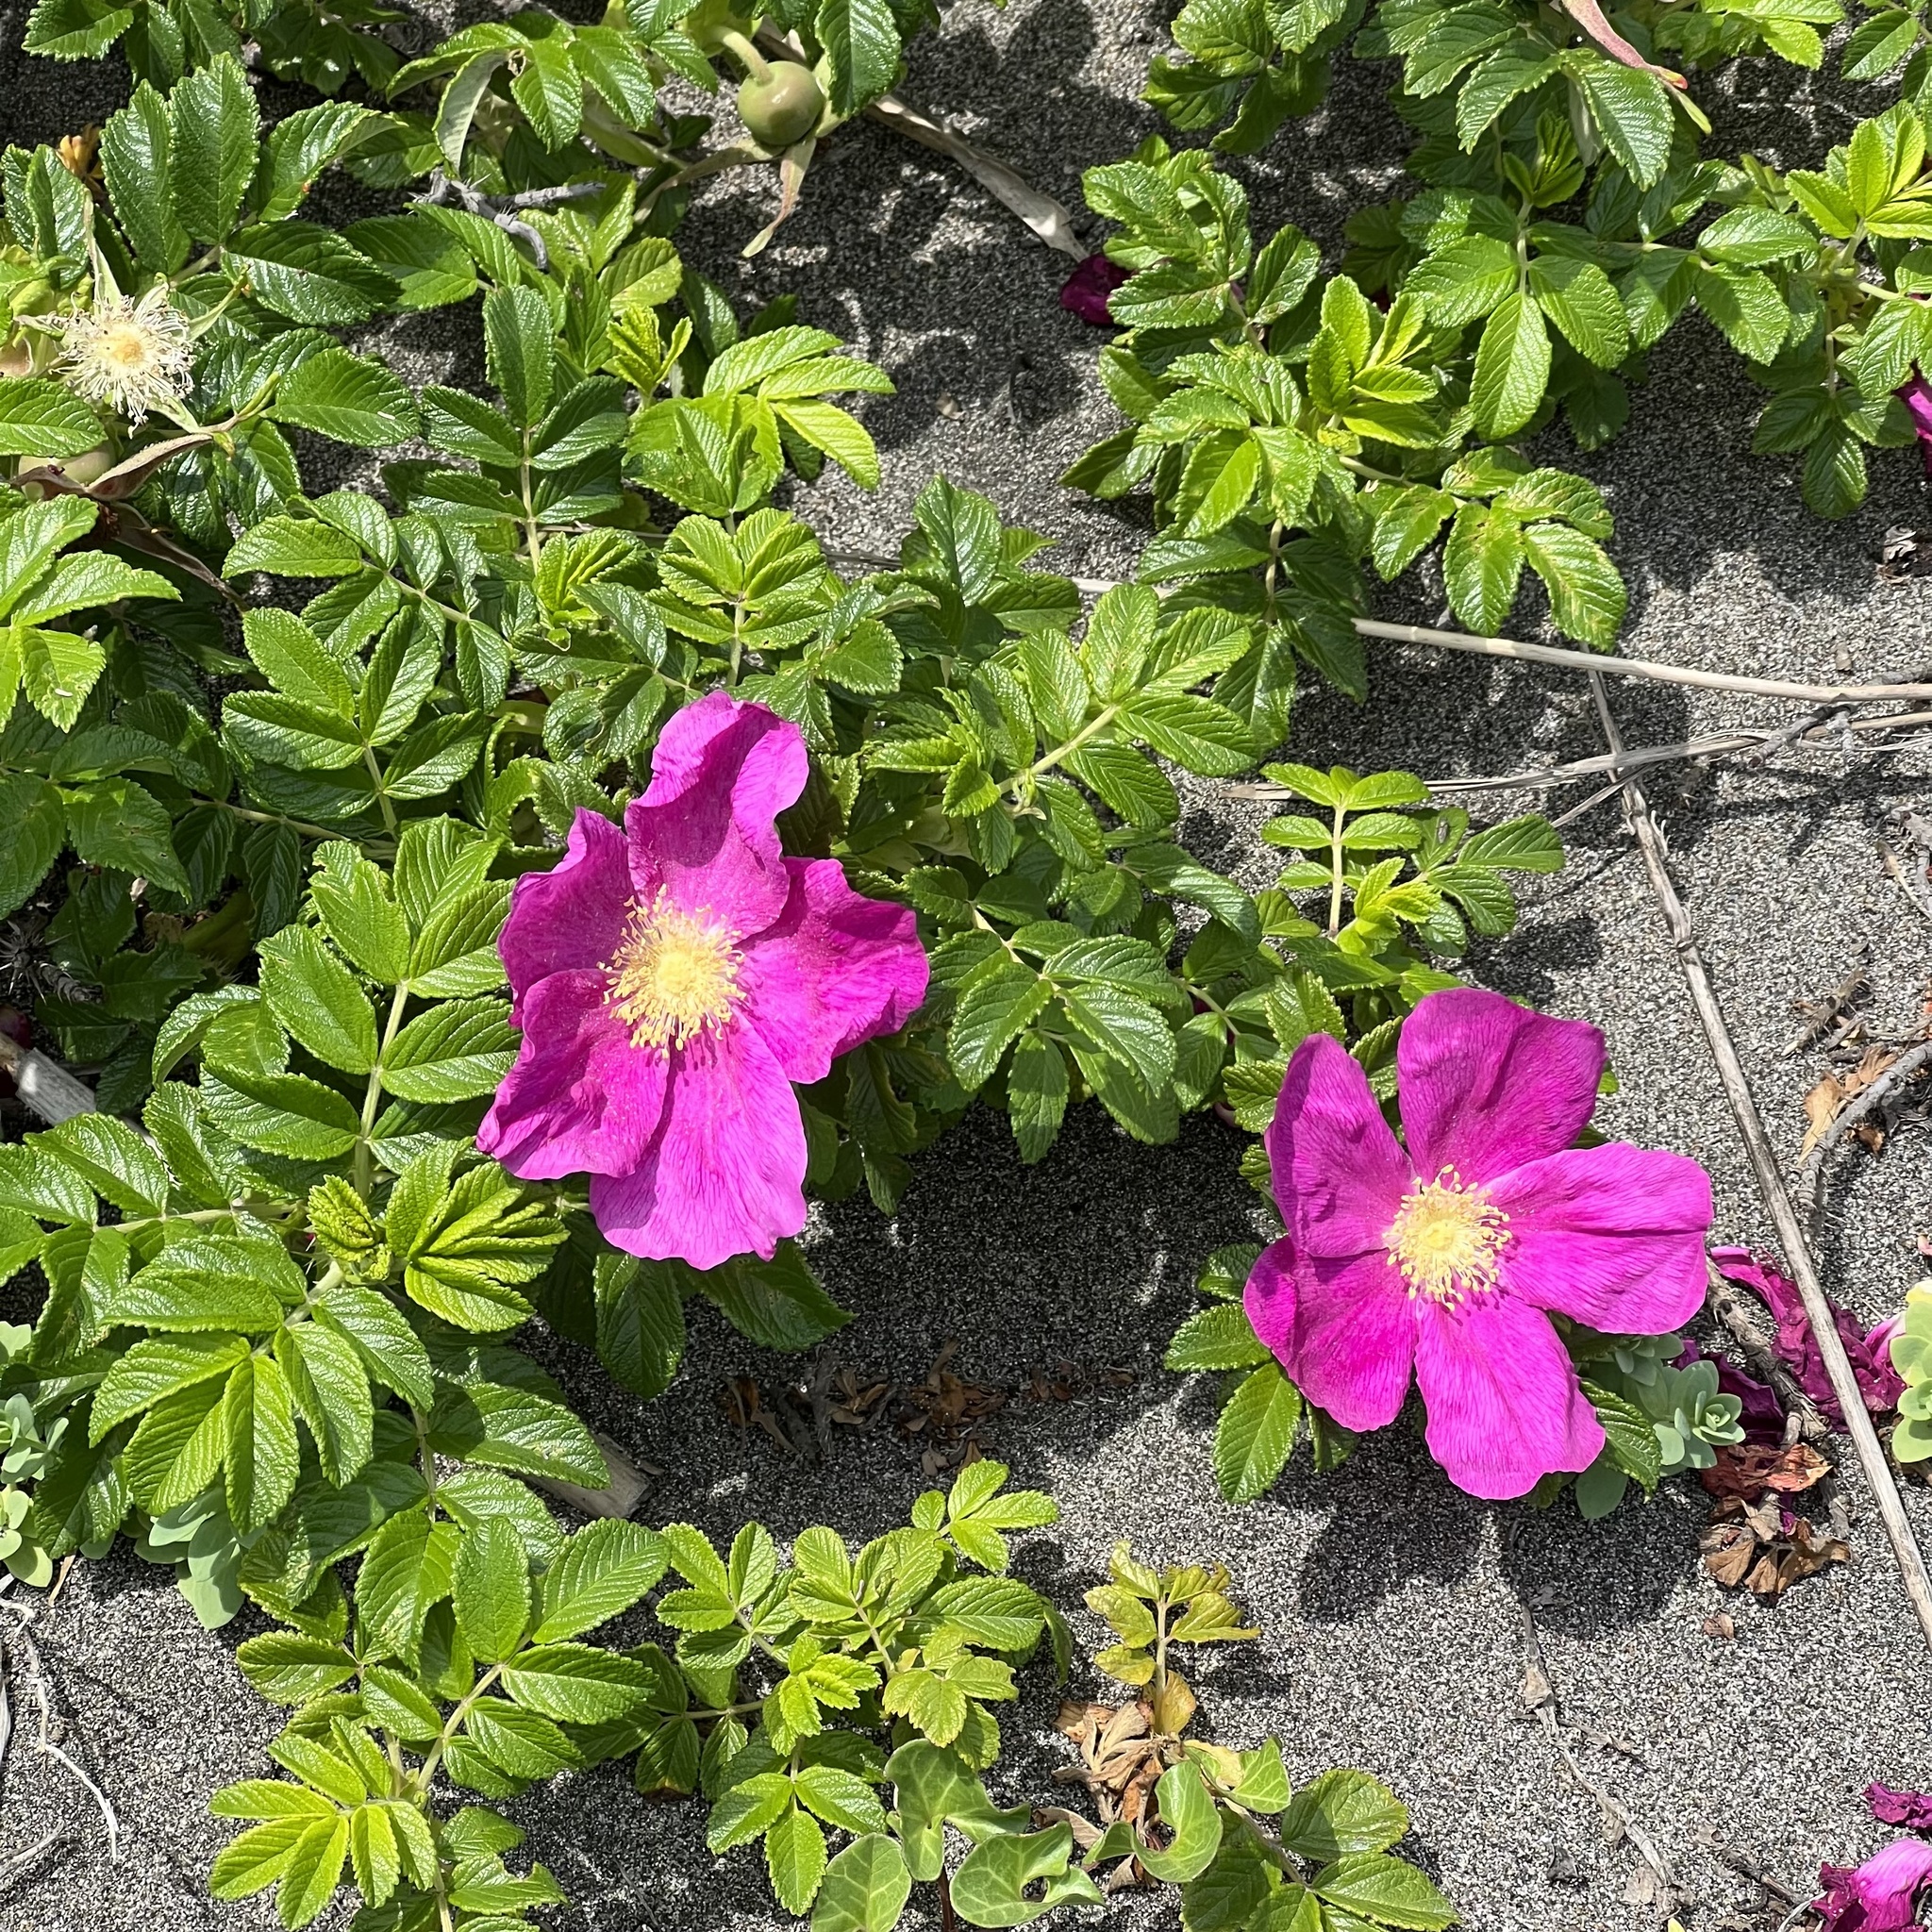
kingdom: Plantae
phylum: Tracheophyta
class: Magnoliopsida
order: Rosales
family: Rosaceae
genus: Rosa
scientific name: Rosa rugosa
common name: Japanese rose
